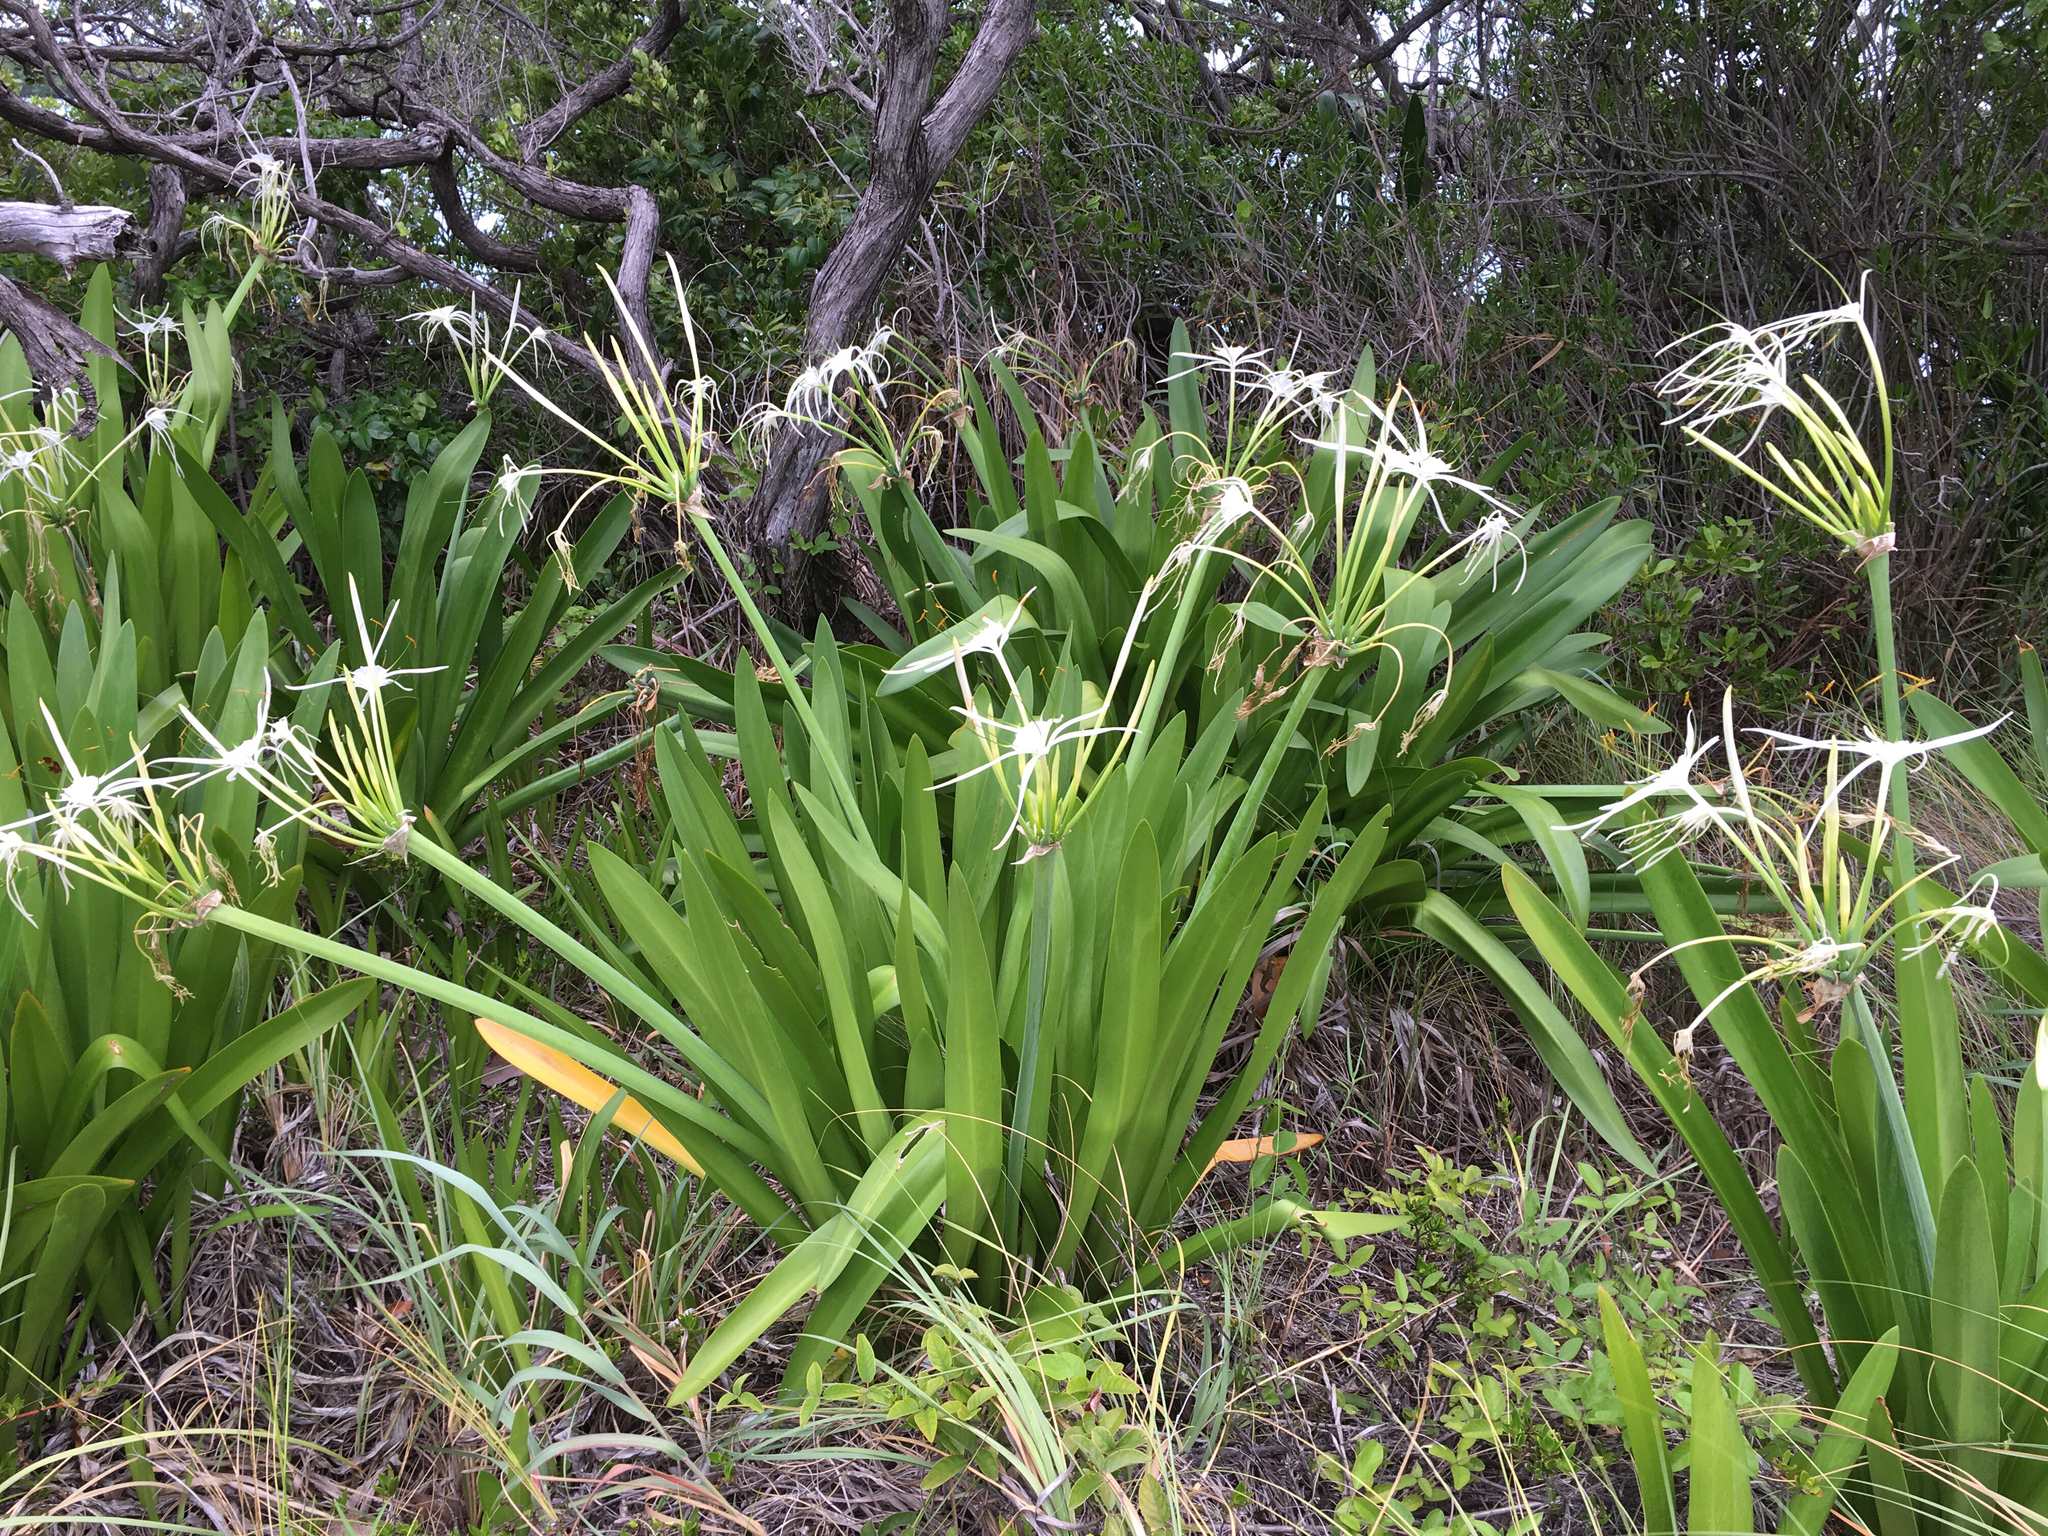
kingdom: Plantae
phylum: Tracheophyta
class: Liliopsida
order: Asparagales
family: Amaryllidaceae
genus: Hymenocallis
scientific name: Hymenocallis latifolia
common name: Cayman islands spider-lily
